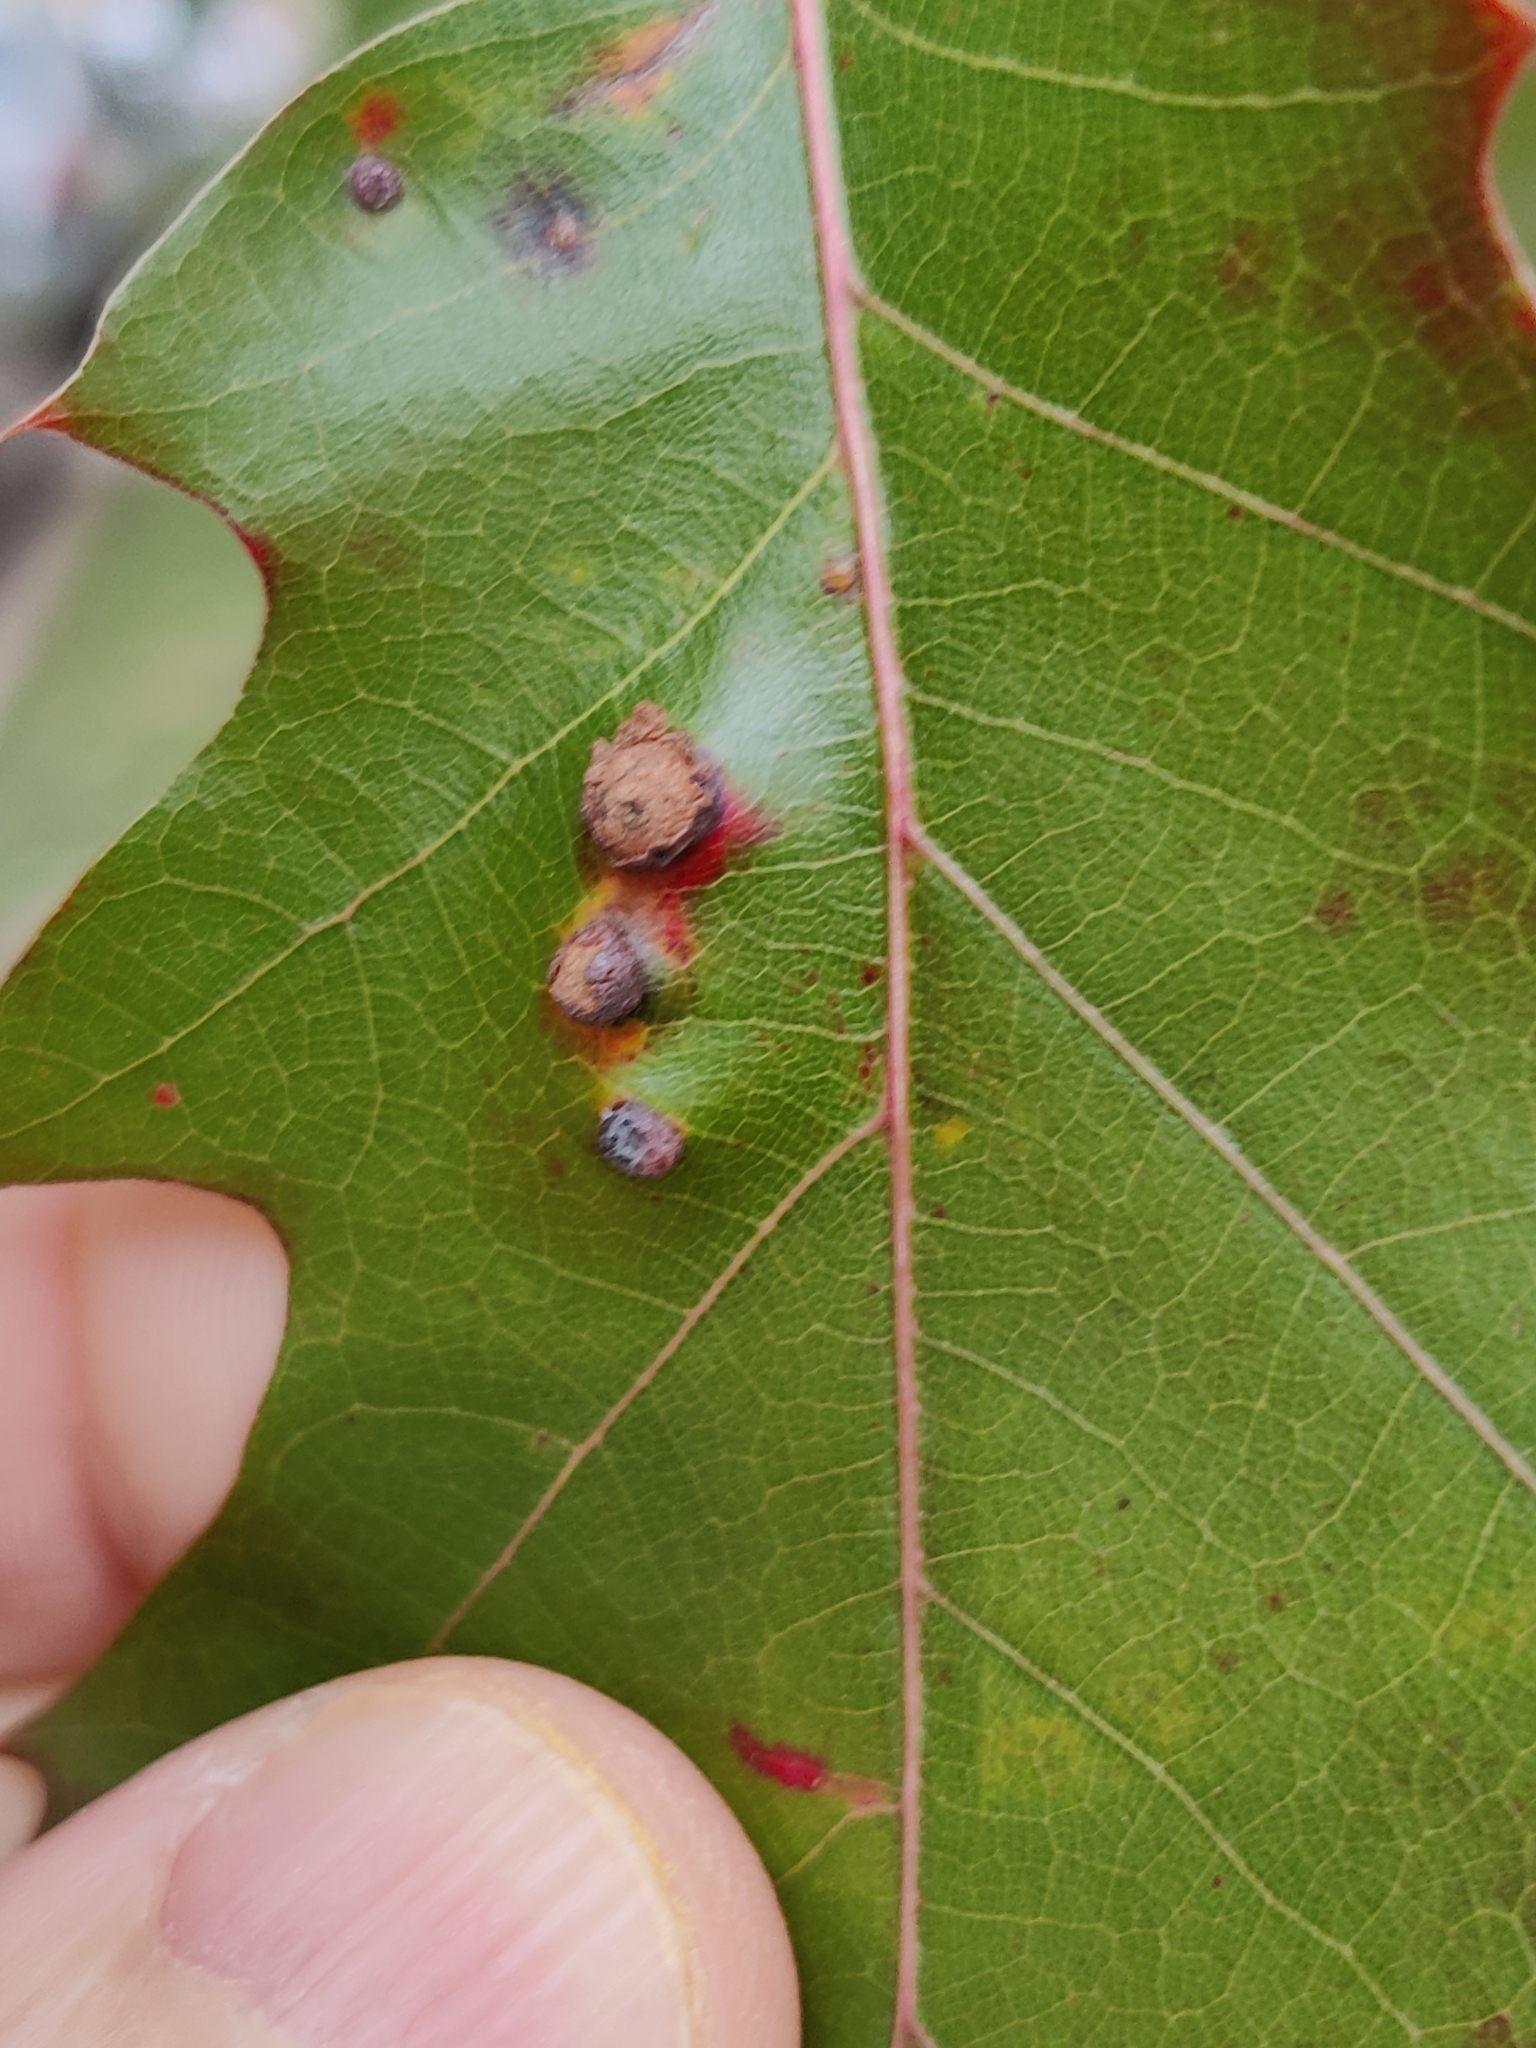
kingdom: Animalia
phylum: Arthropoda
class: Insecta
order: Diptera
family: Cecidomyiidae
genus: Polystepha
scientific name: Polystepha pilulae
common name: Oak leaf gall midge
